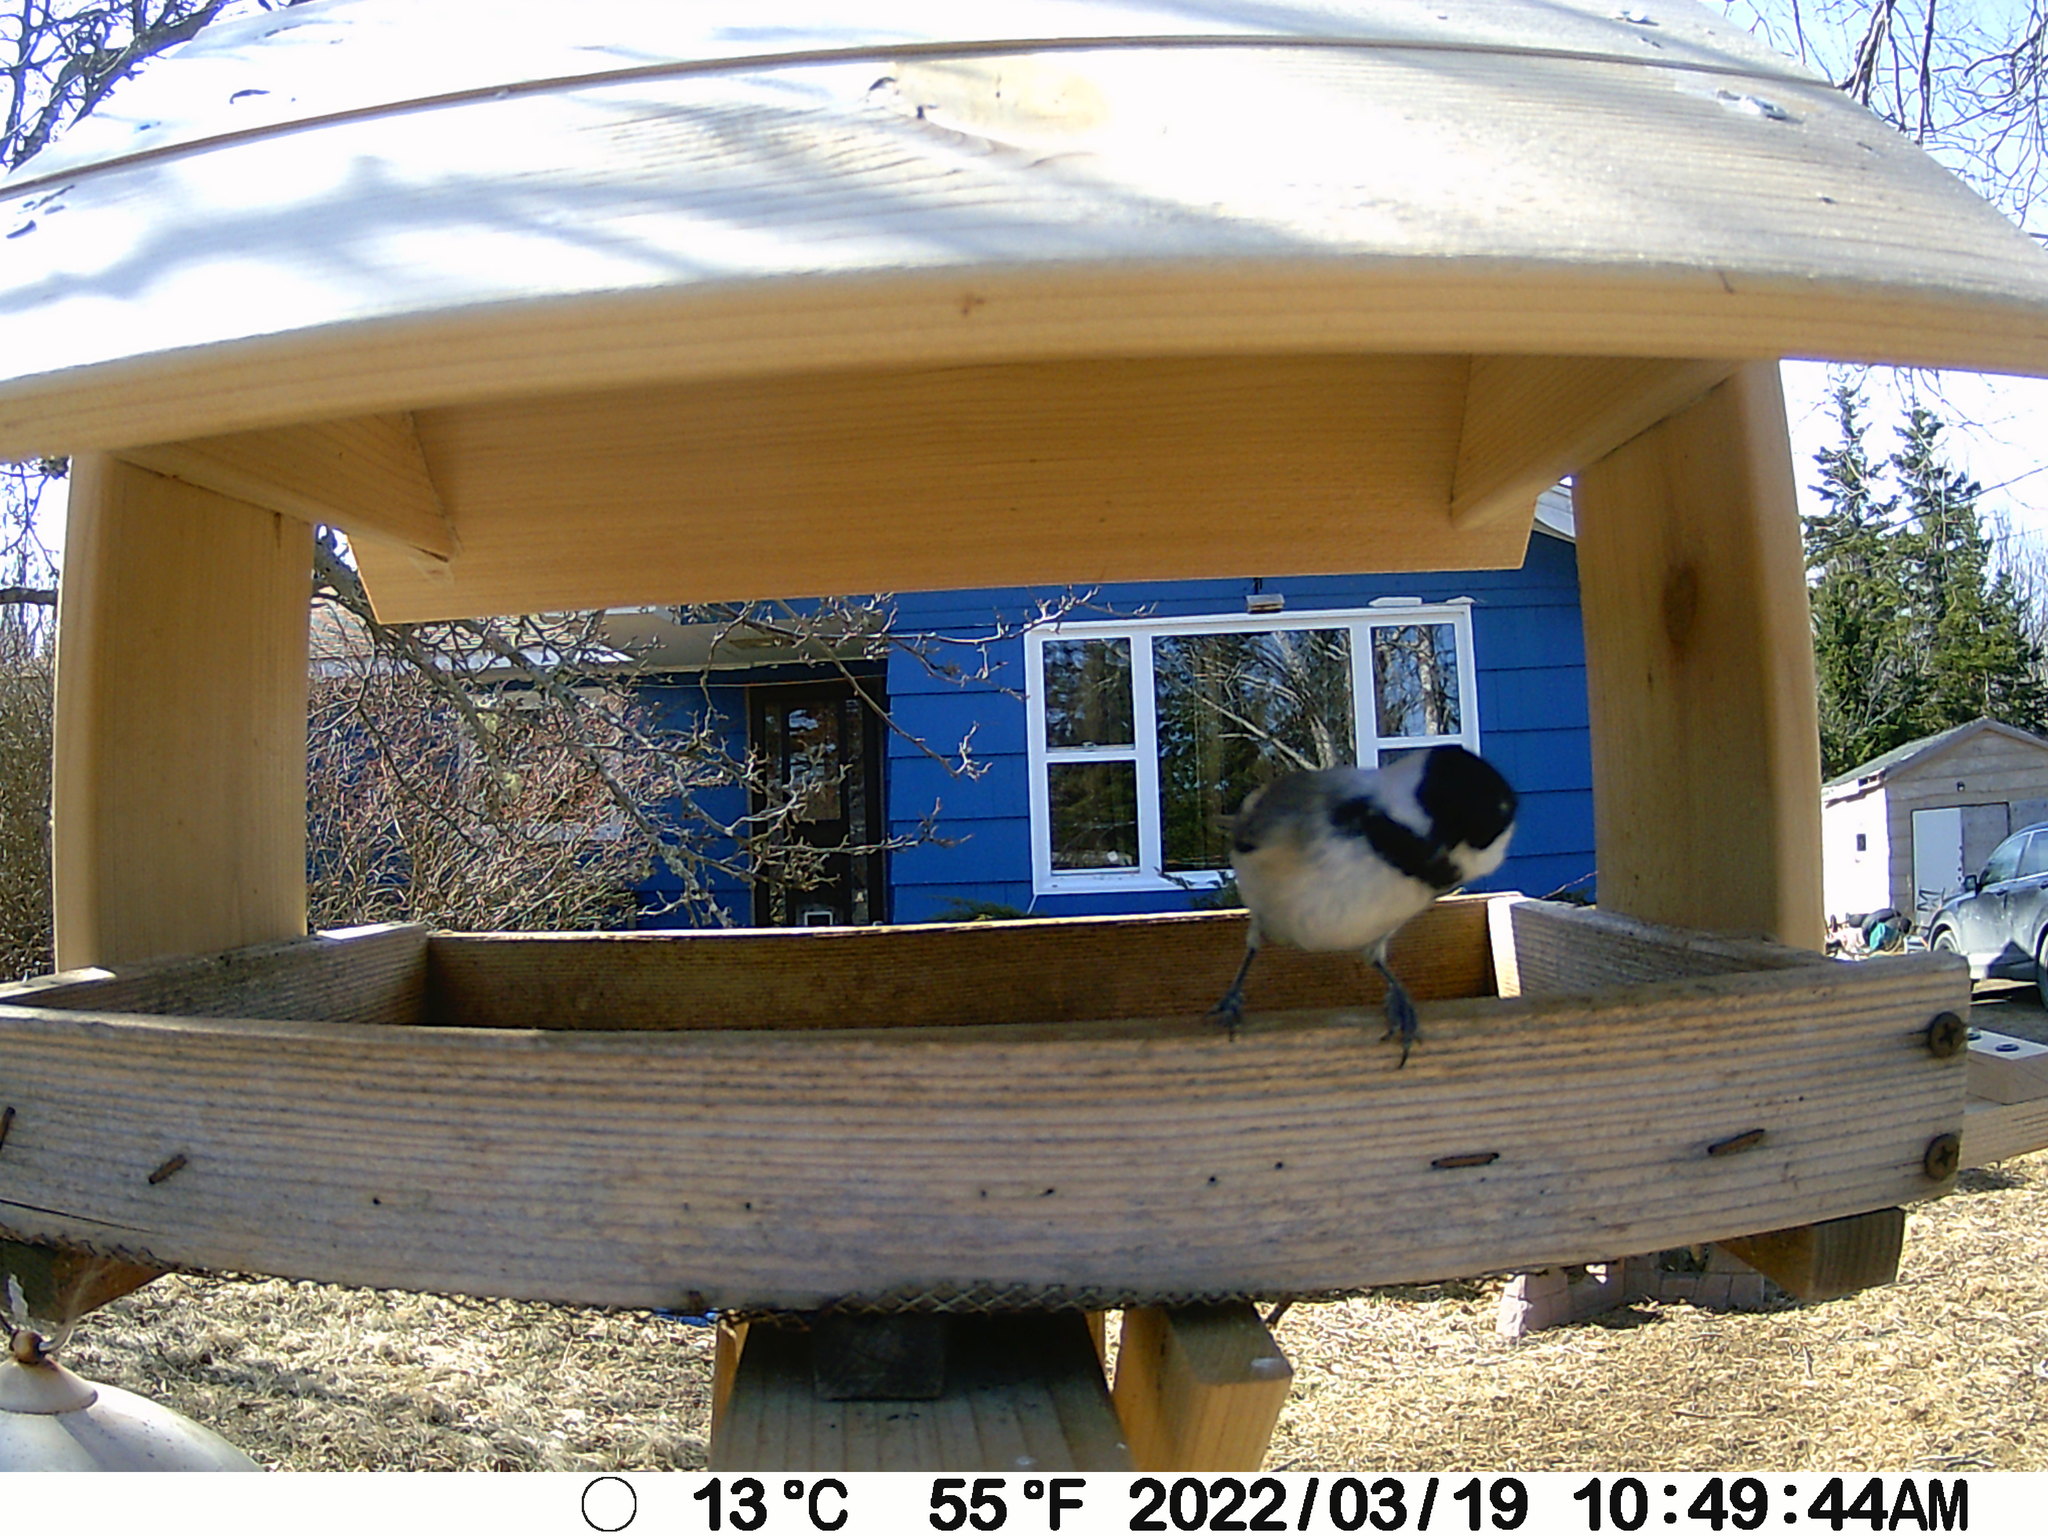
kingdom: Animalia
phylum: Chordata
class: Aves
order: Passeriformes
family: Paridae
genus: Poecile
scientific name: Poecile atricapillus
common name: Black-capped chickadee
